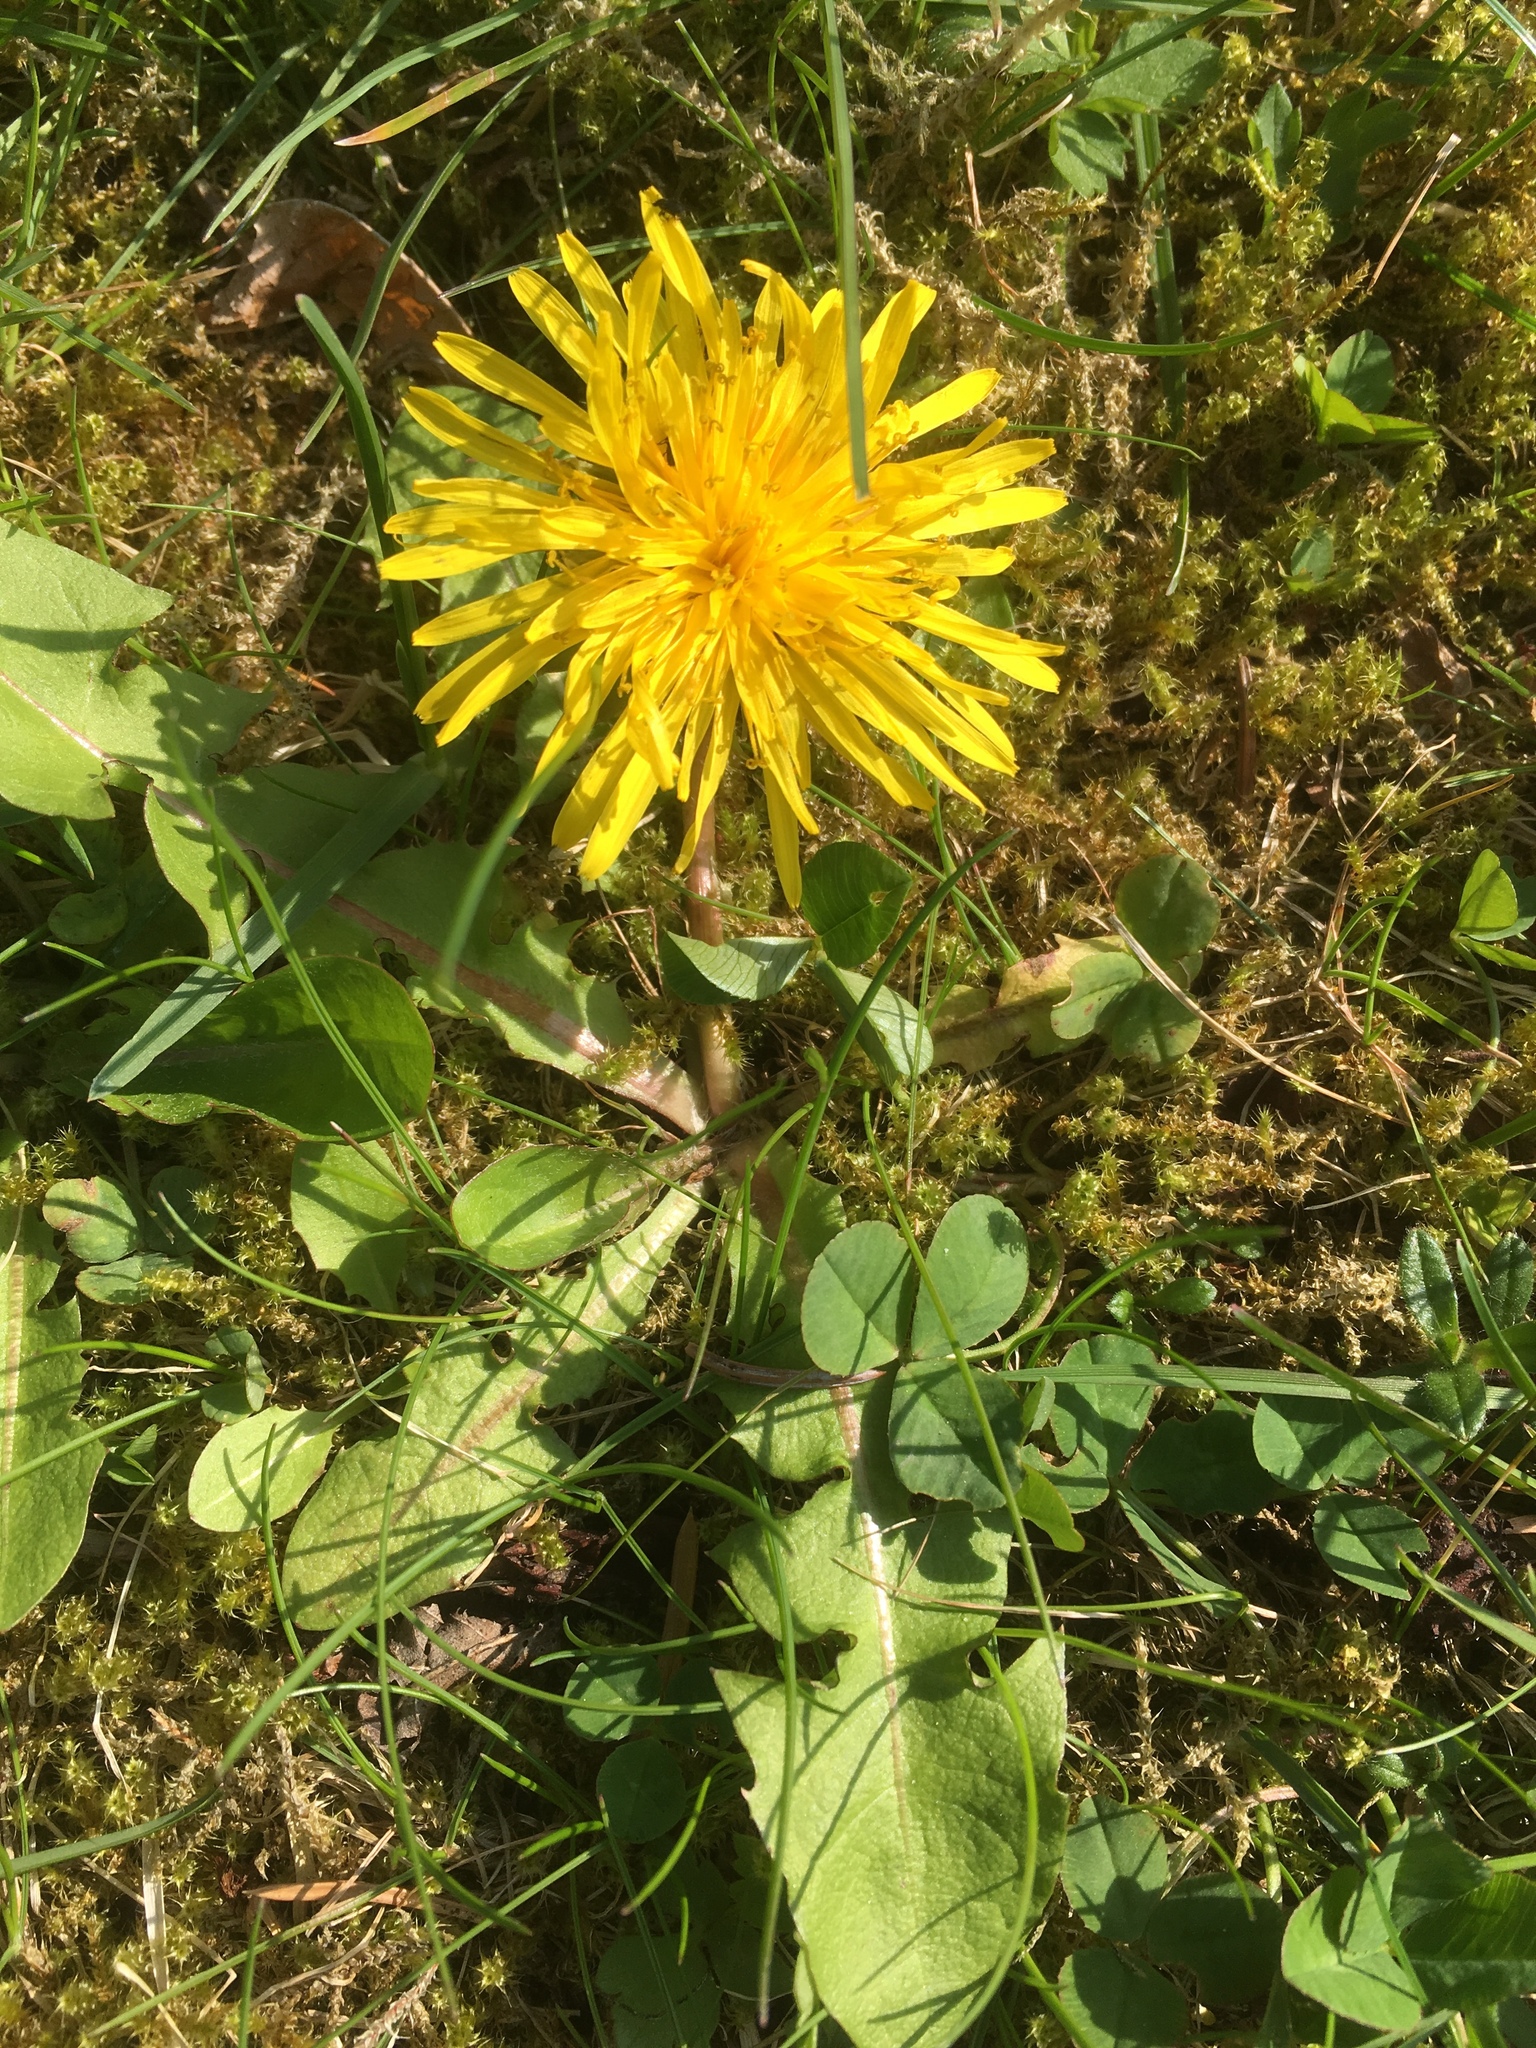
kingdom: Plantae
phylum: Tracheophyta
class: Magnoliopsida
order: Asterales
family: Asteraceae
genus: Taraxacum
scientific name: Taraxacum officinale
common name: Common dandelion
